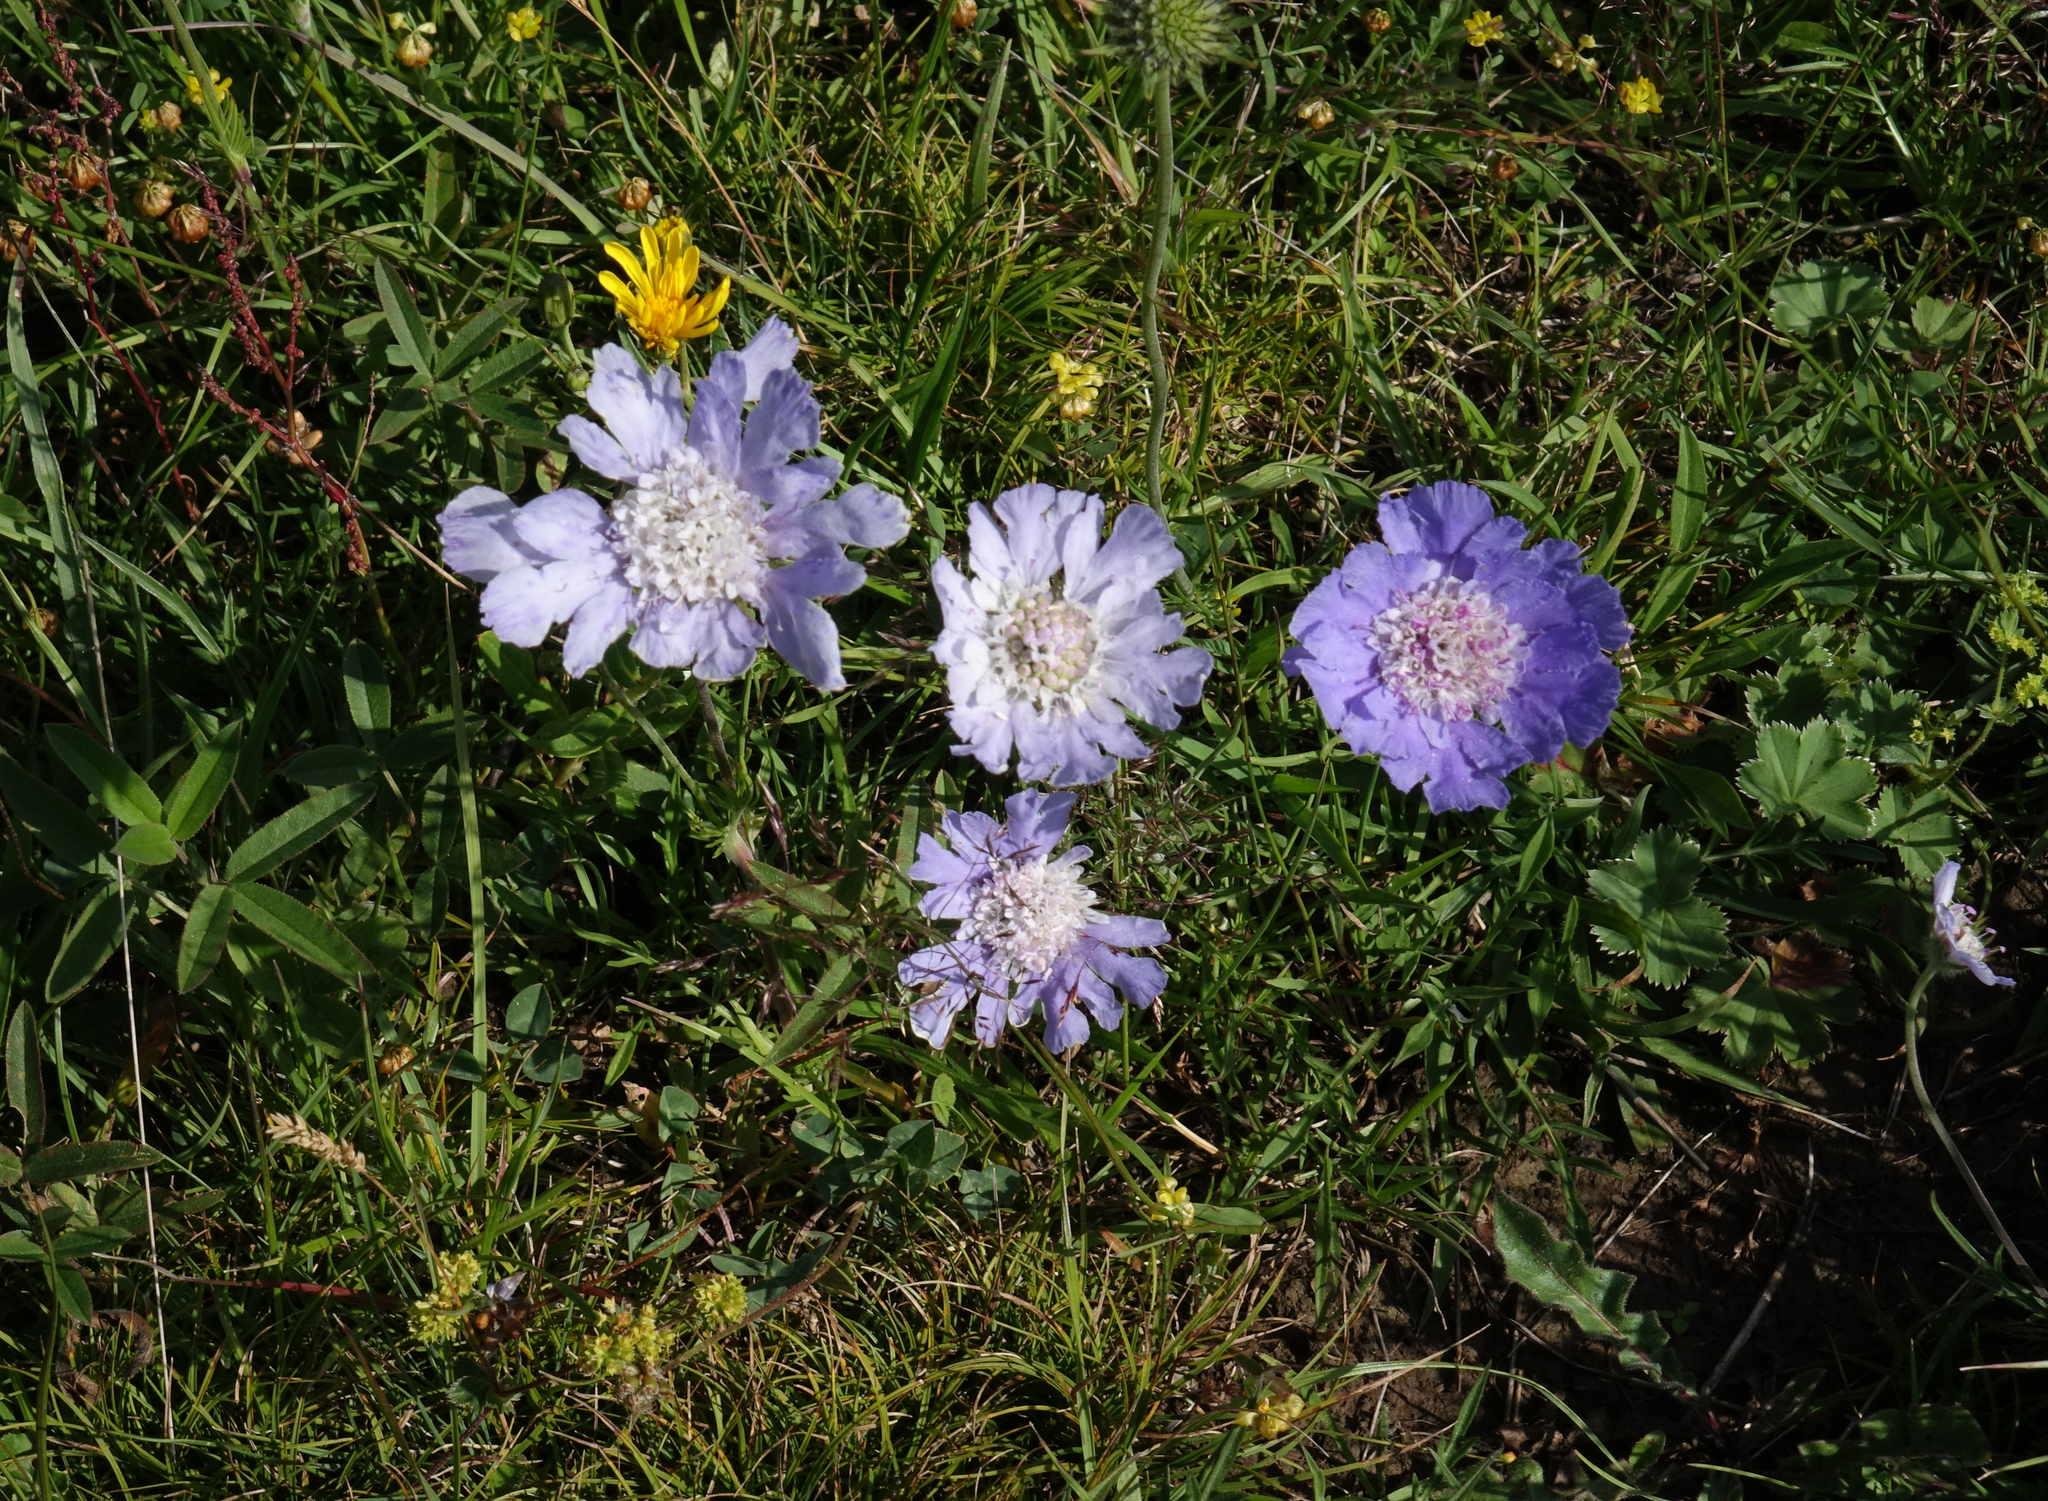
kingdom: Plantae
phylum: Tracheophyta
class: Magnoliopsida
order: Dipsacales
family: Caprifoliaceae
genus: Lomelosia
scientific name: Lomelosia caucasica
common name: Pincushion-flower
